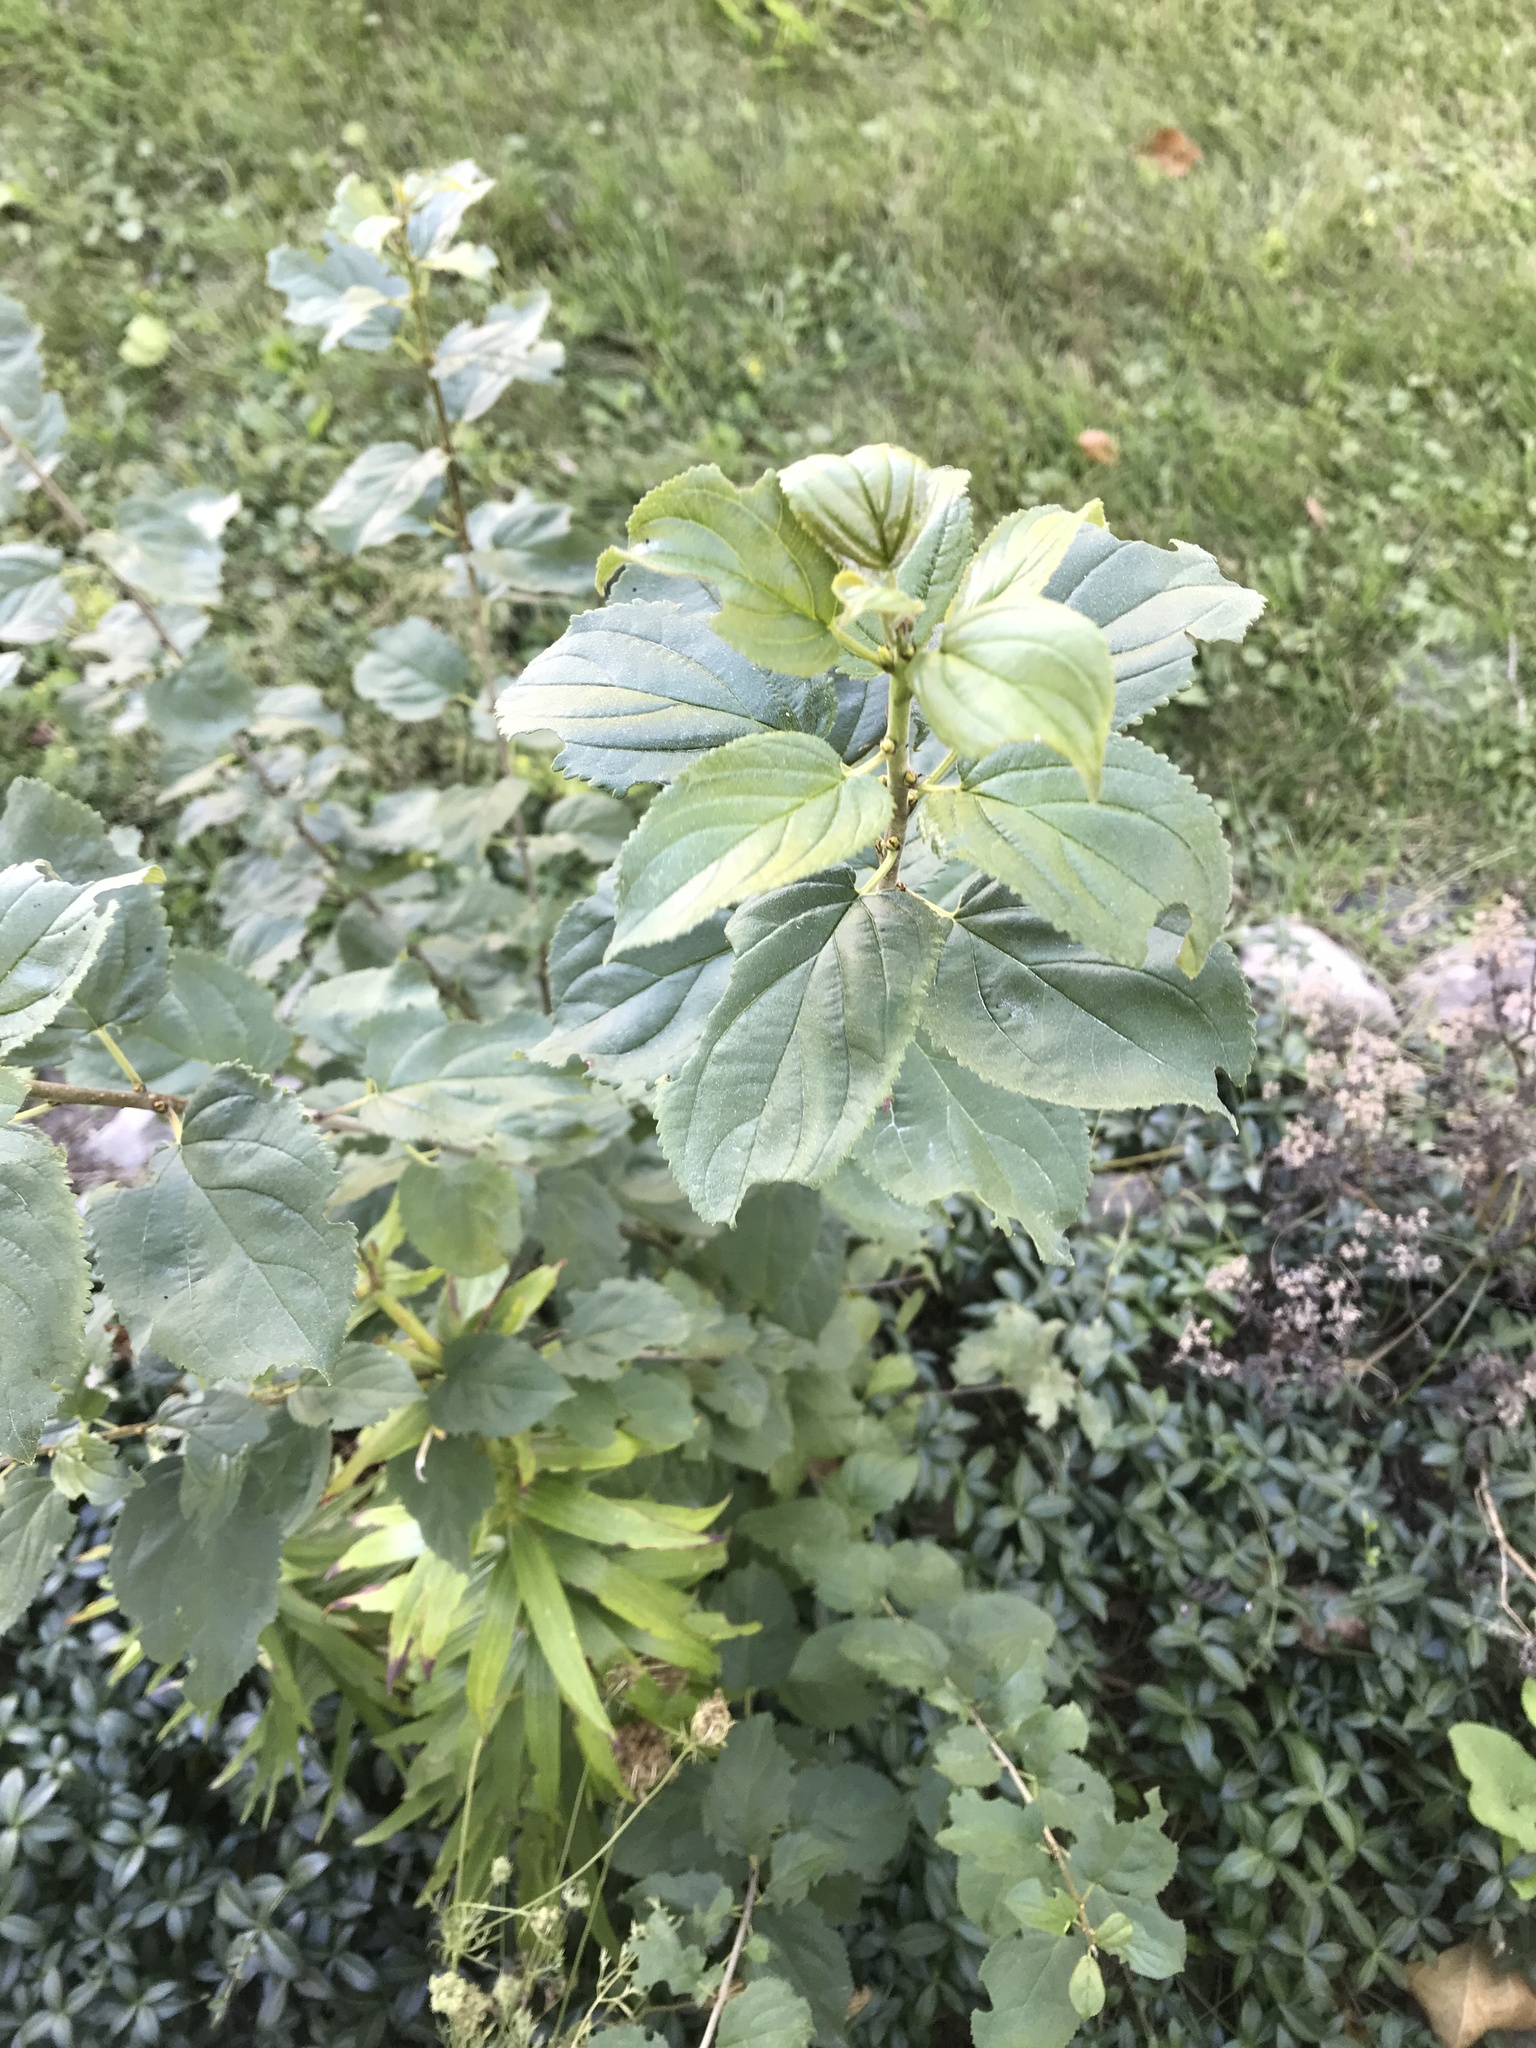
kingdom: Plantae
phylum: Tracheophyta
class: Magnoliopsida
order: Rosales
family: Rhamnaceae
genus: Rhamnus
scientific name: Rhamnus cathartica
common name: Common buckthorn
